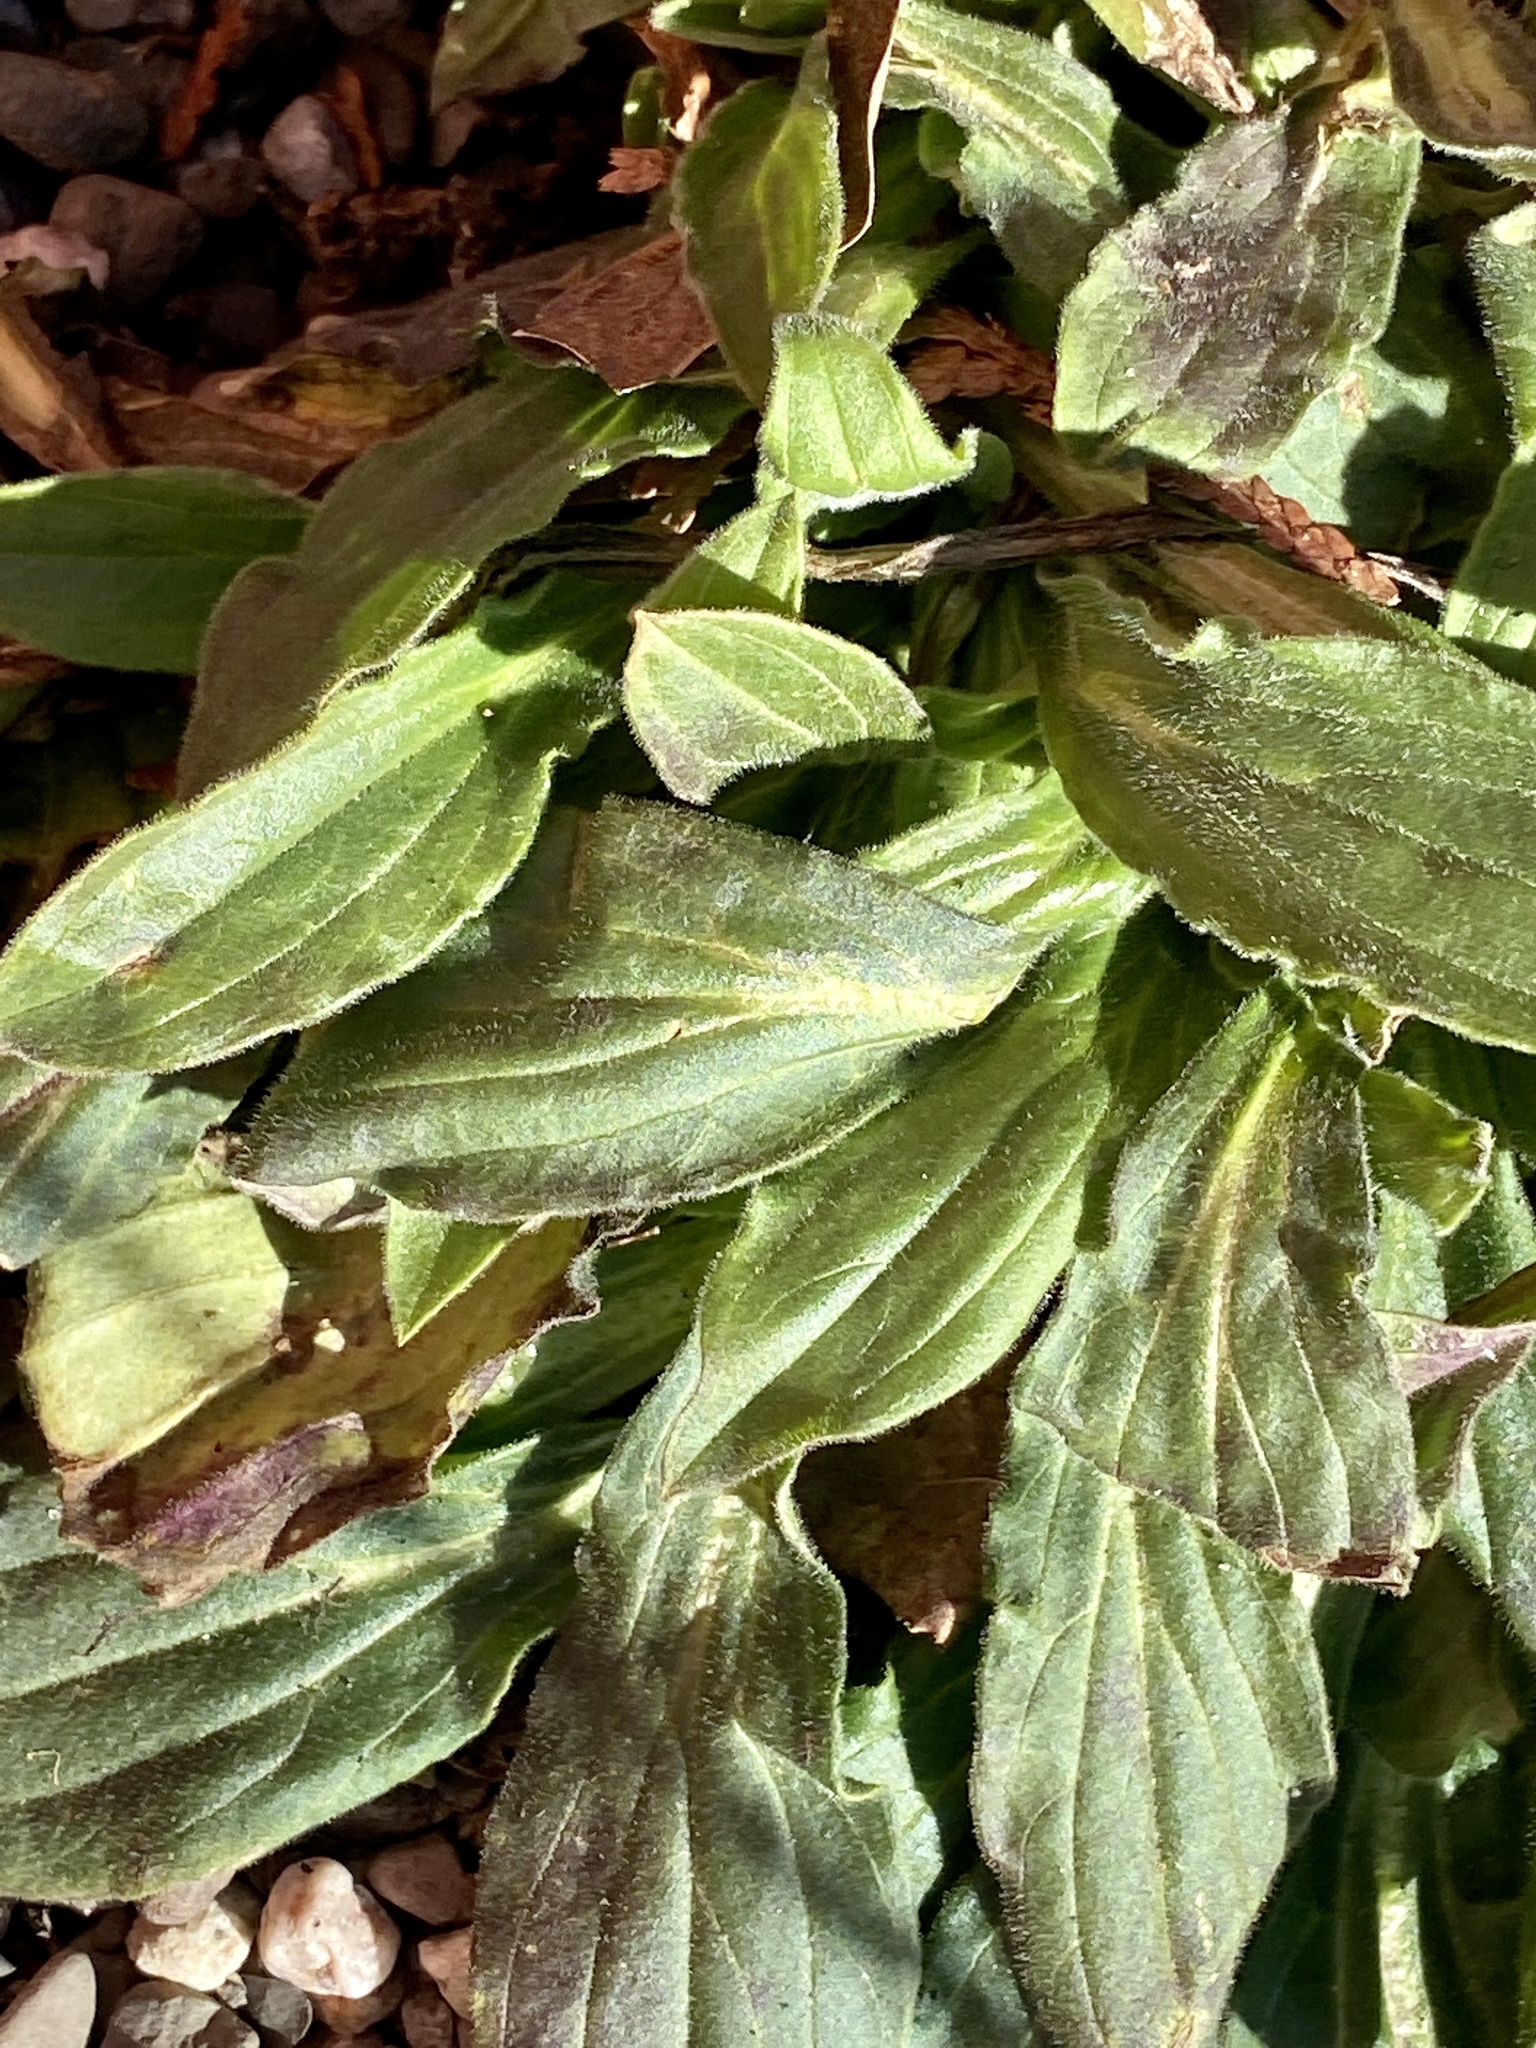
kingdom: Plantae
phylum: Tracheophyta
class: Magnoliopsida
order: Caryophyllales
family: Caryophyllaceae
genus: Silene
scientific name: Silene latifolia
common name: White campion
